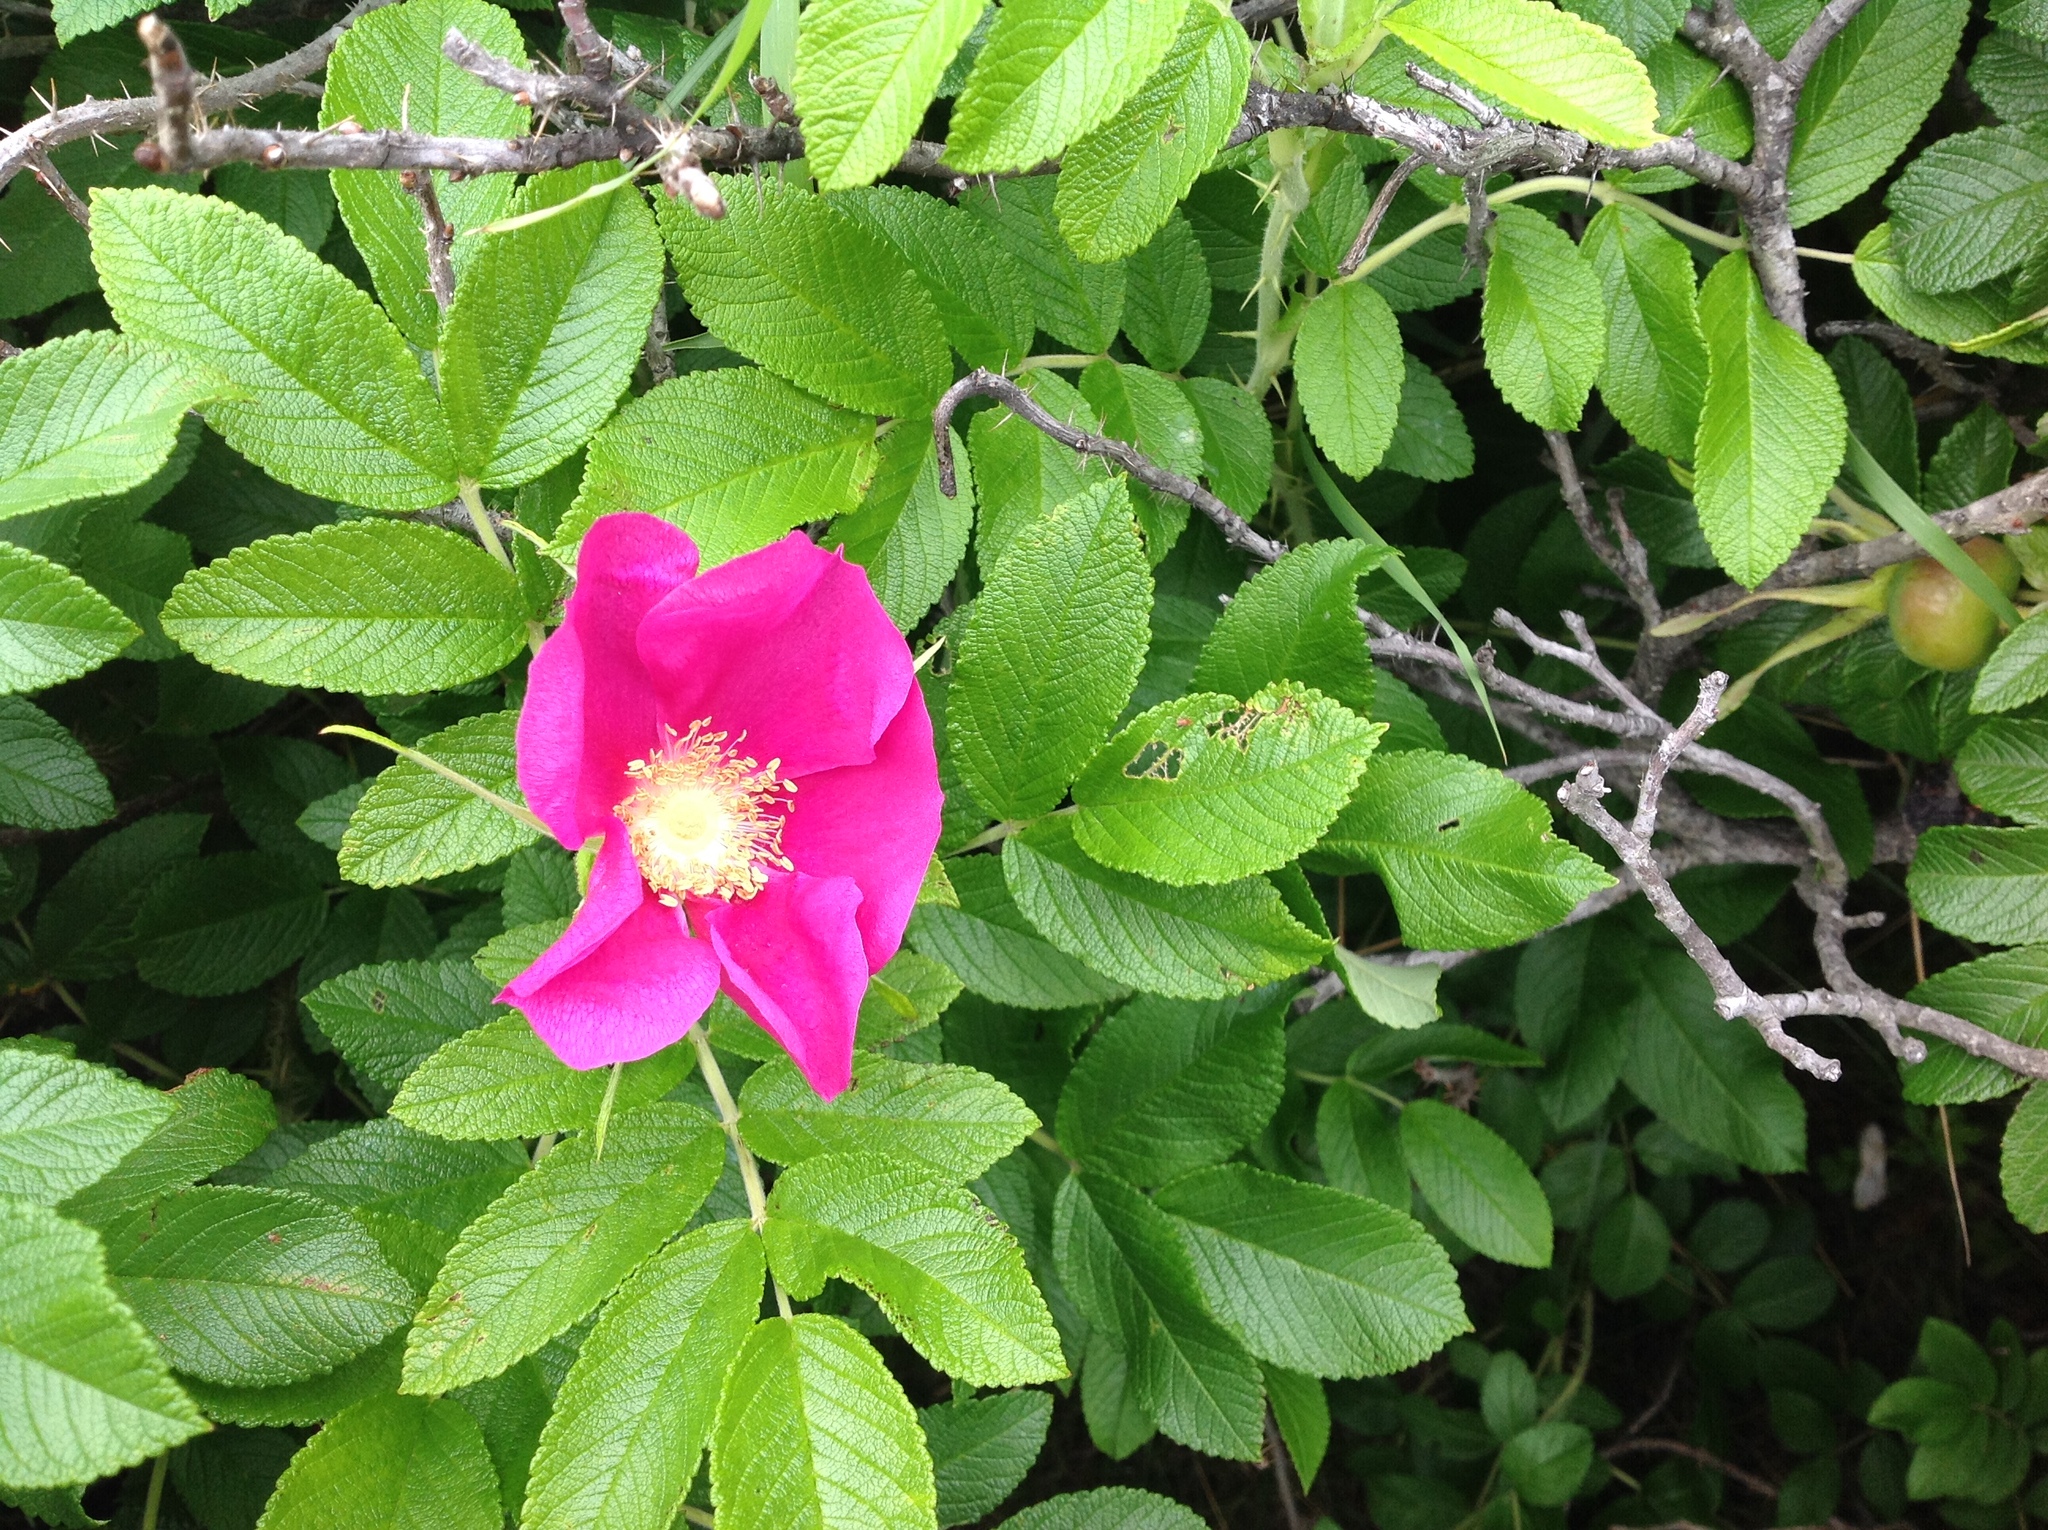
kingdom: Plantae
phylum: Tracheophyta
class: Magnoliopsida
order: Rosales
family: Rosaceae
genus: Rosa
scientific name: Rosa rugosa
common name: Japanese rose
